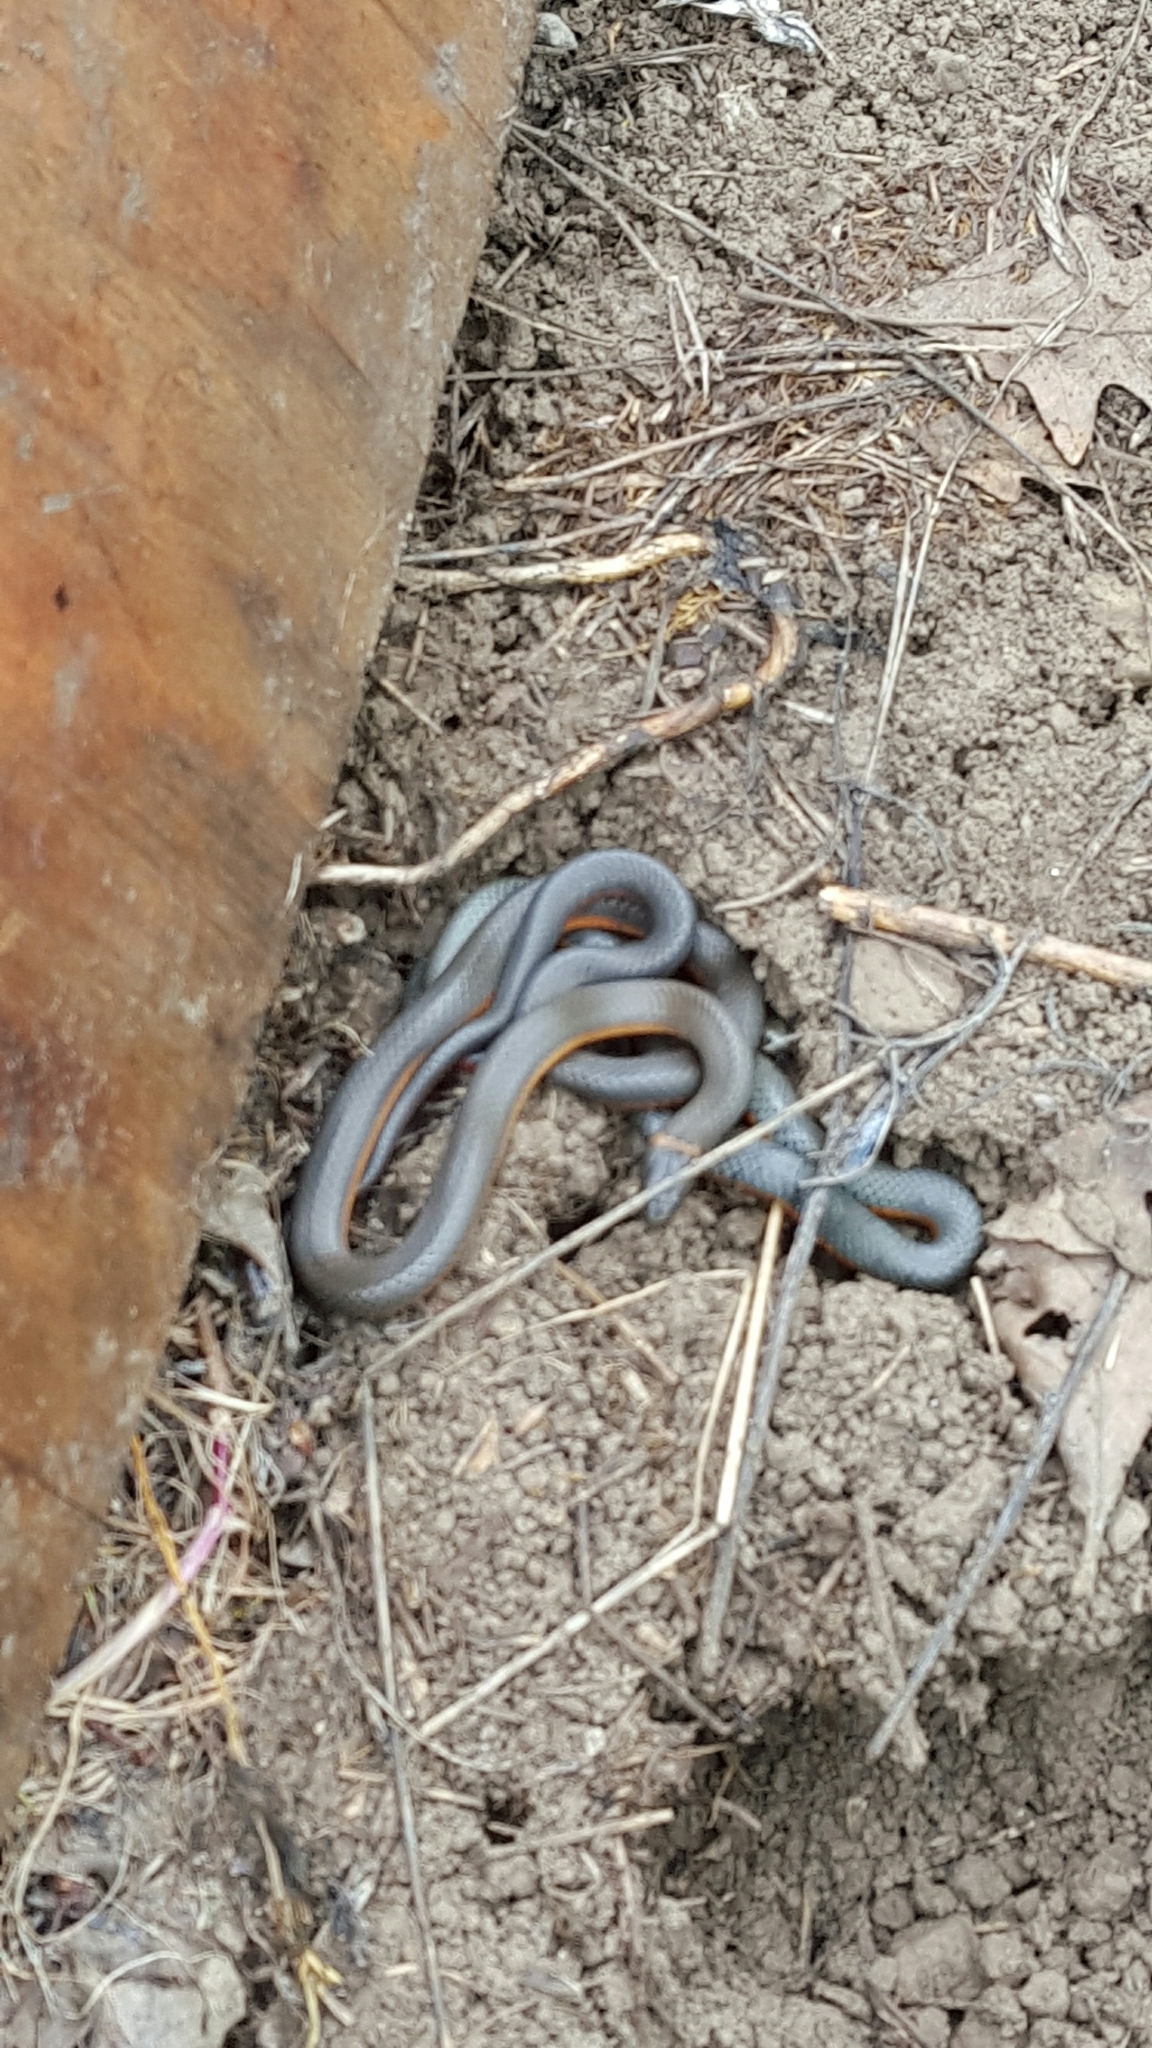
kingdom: Animalia
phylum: Chordata
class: Squamata
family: Colubridae
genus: Diadophis
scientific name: Diadophis punctatus
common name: Ringneck snake
